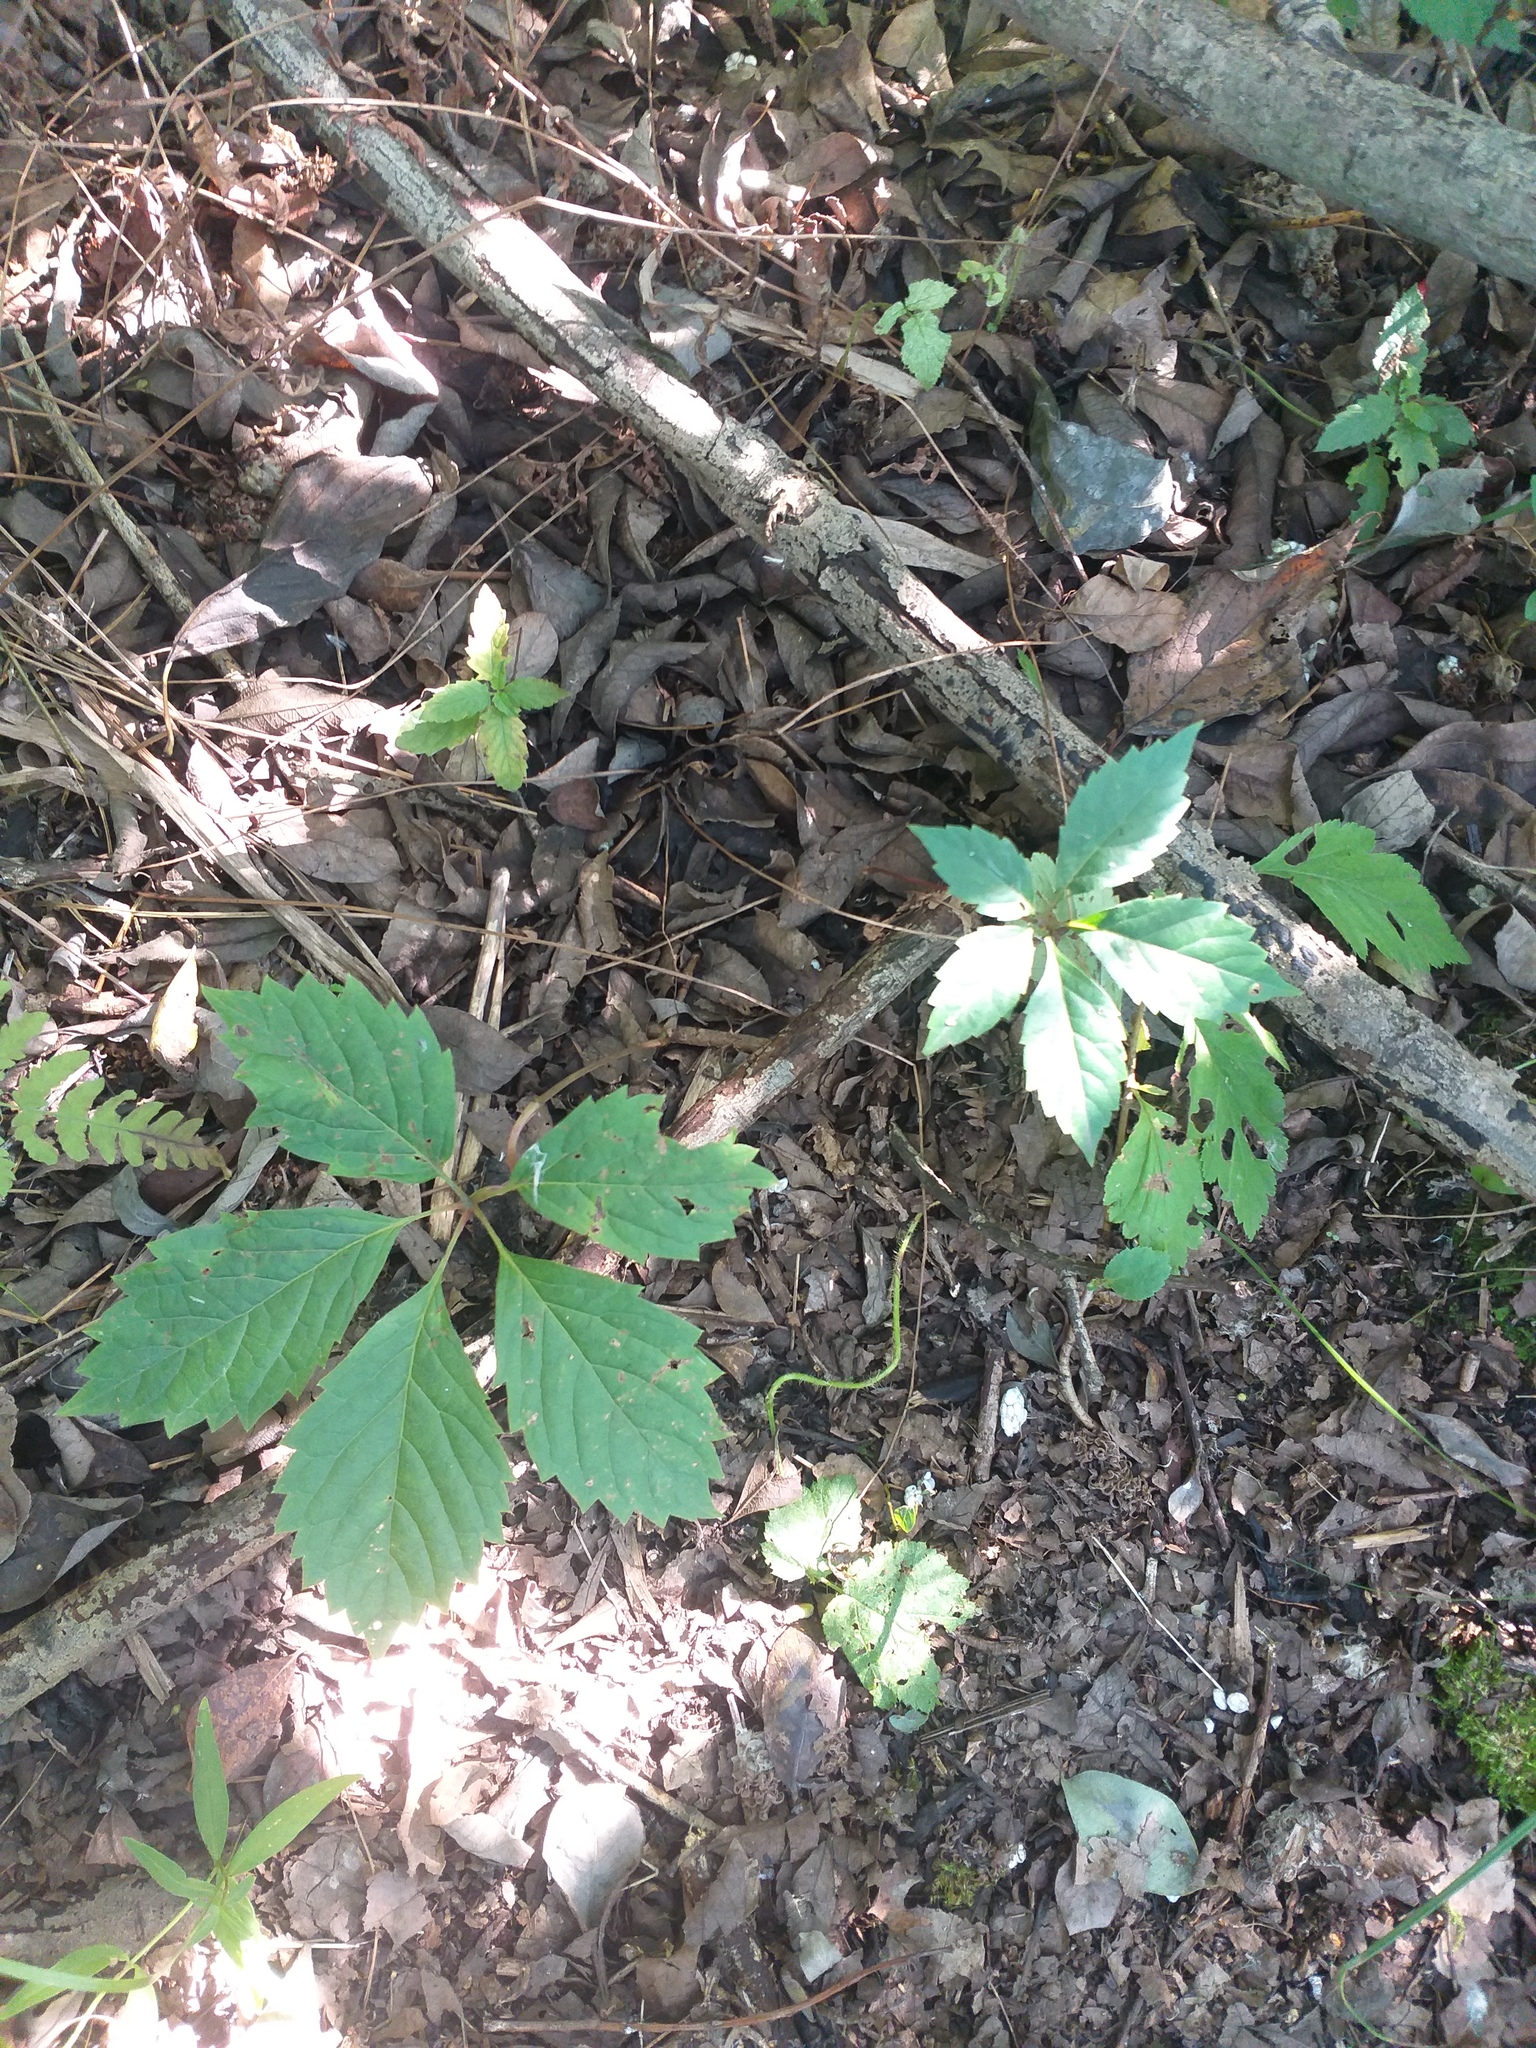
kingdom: Plantae
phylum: Tracheophyta
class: Magnoliopsida
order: Vitales
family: Vitaceae
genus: Parthenocissus
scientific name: Parthenocissus inserta
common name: False virginia-creeper
